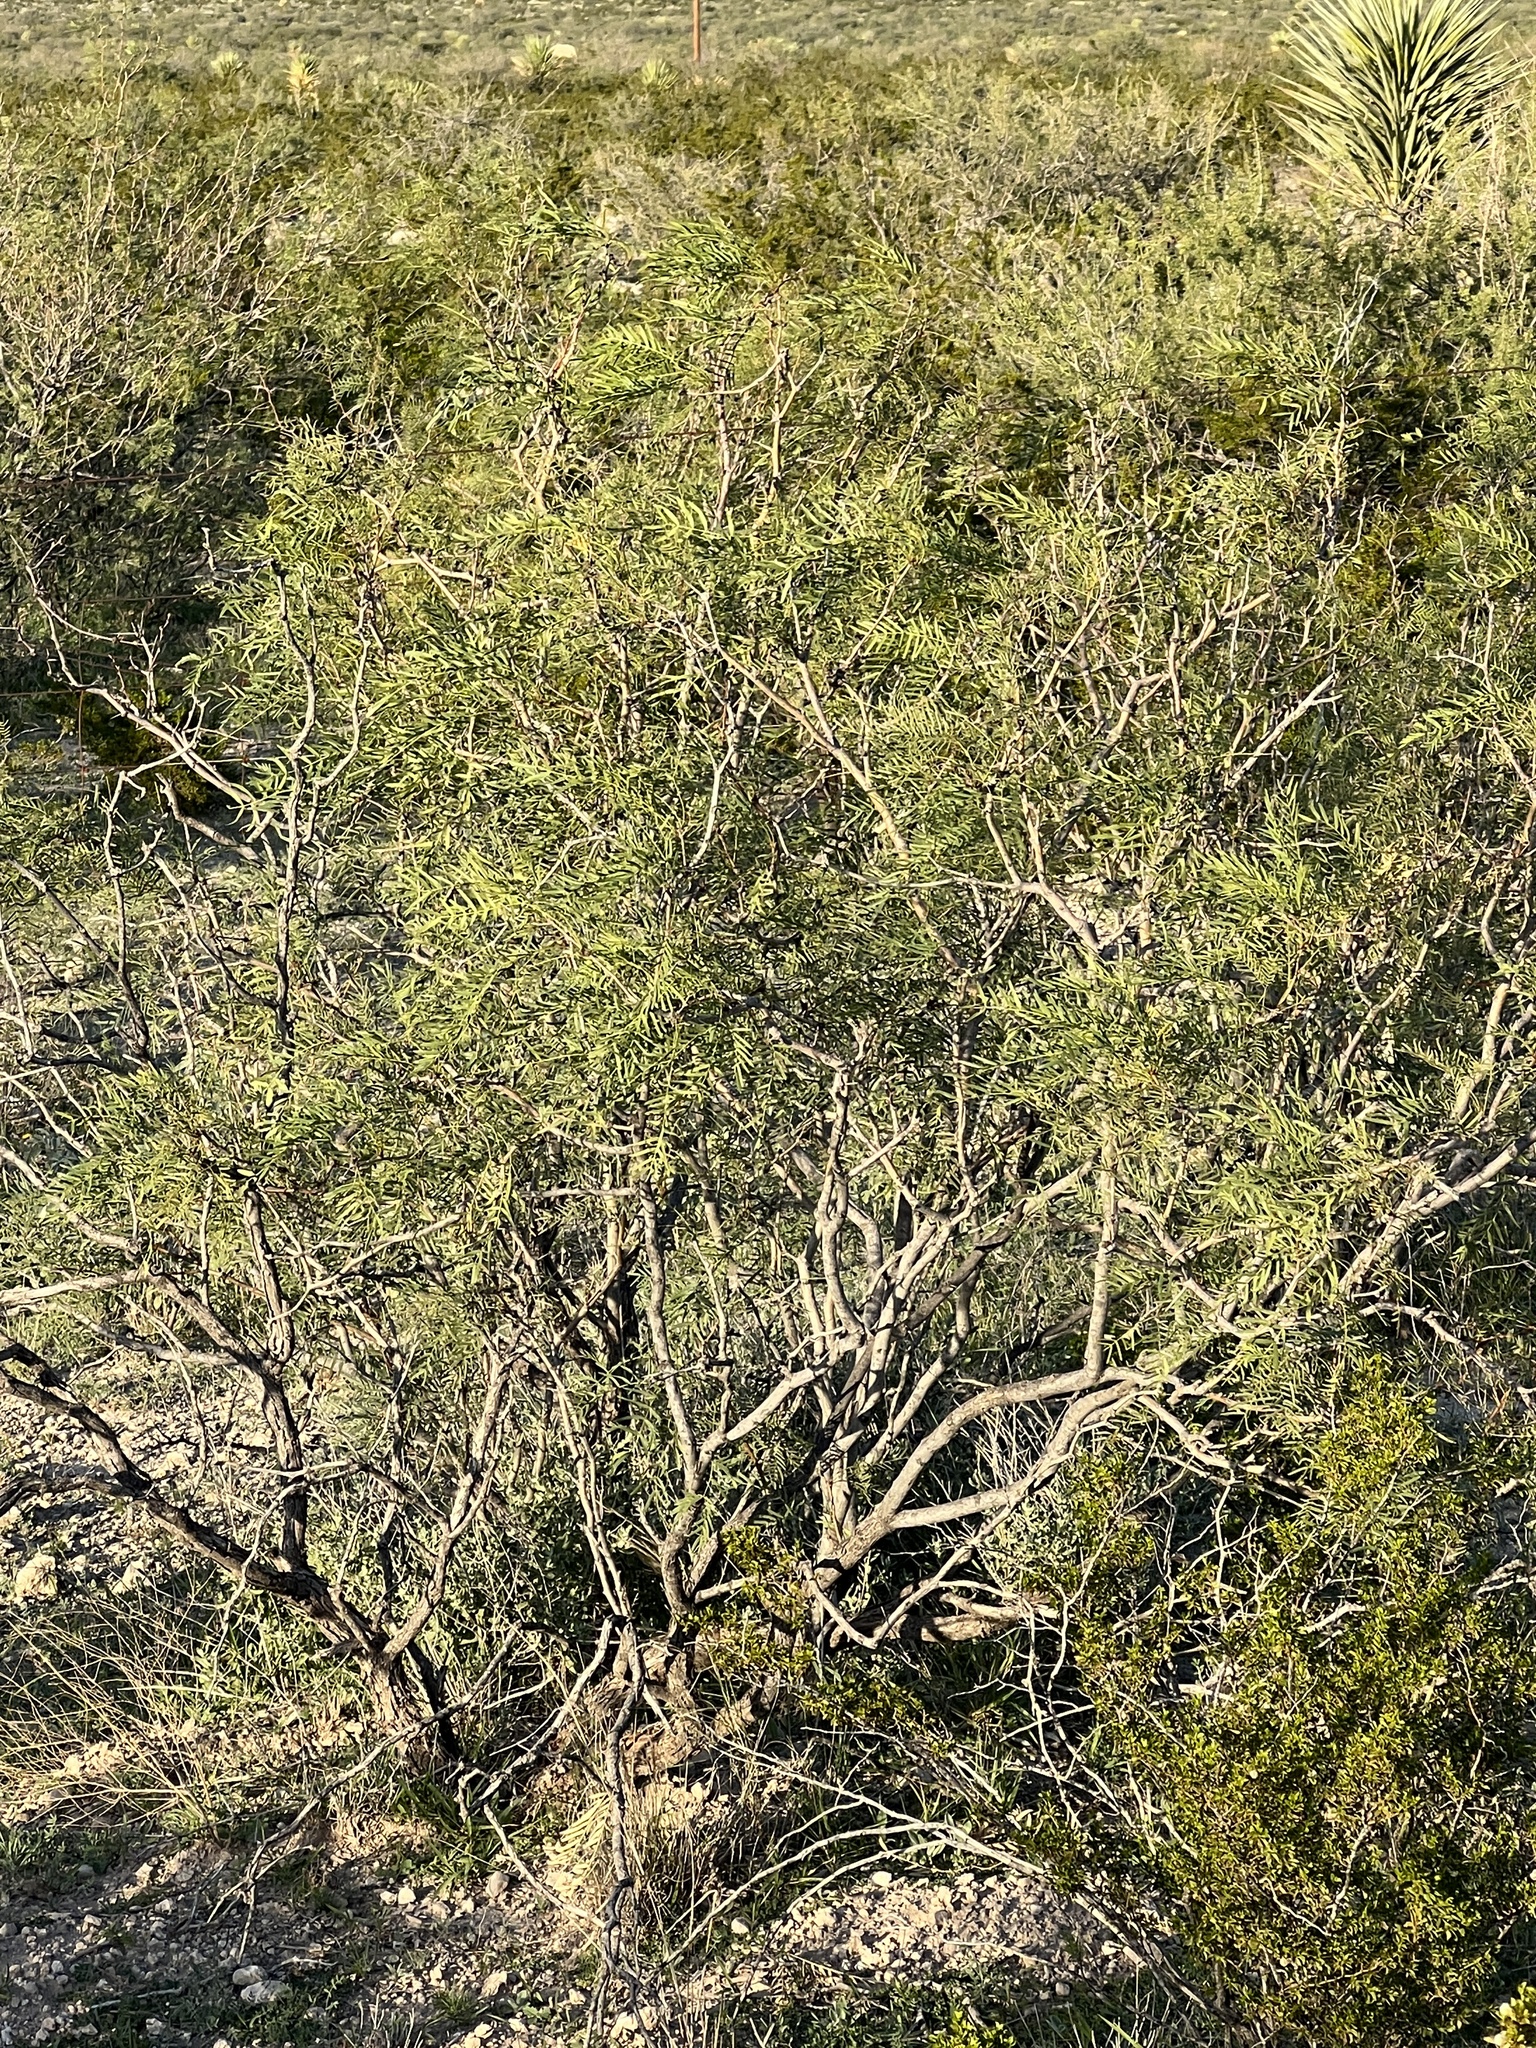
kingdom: Plantae
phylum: Tracheophyta
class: Magnoliopsida
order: Fabales
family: Fabaceae
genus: Prosopis
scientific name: Prosopis pubescens
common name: Screw-bean
